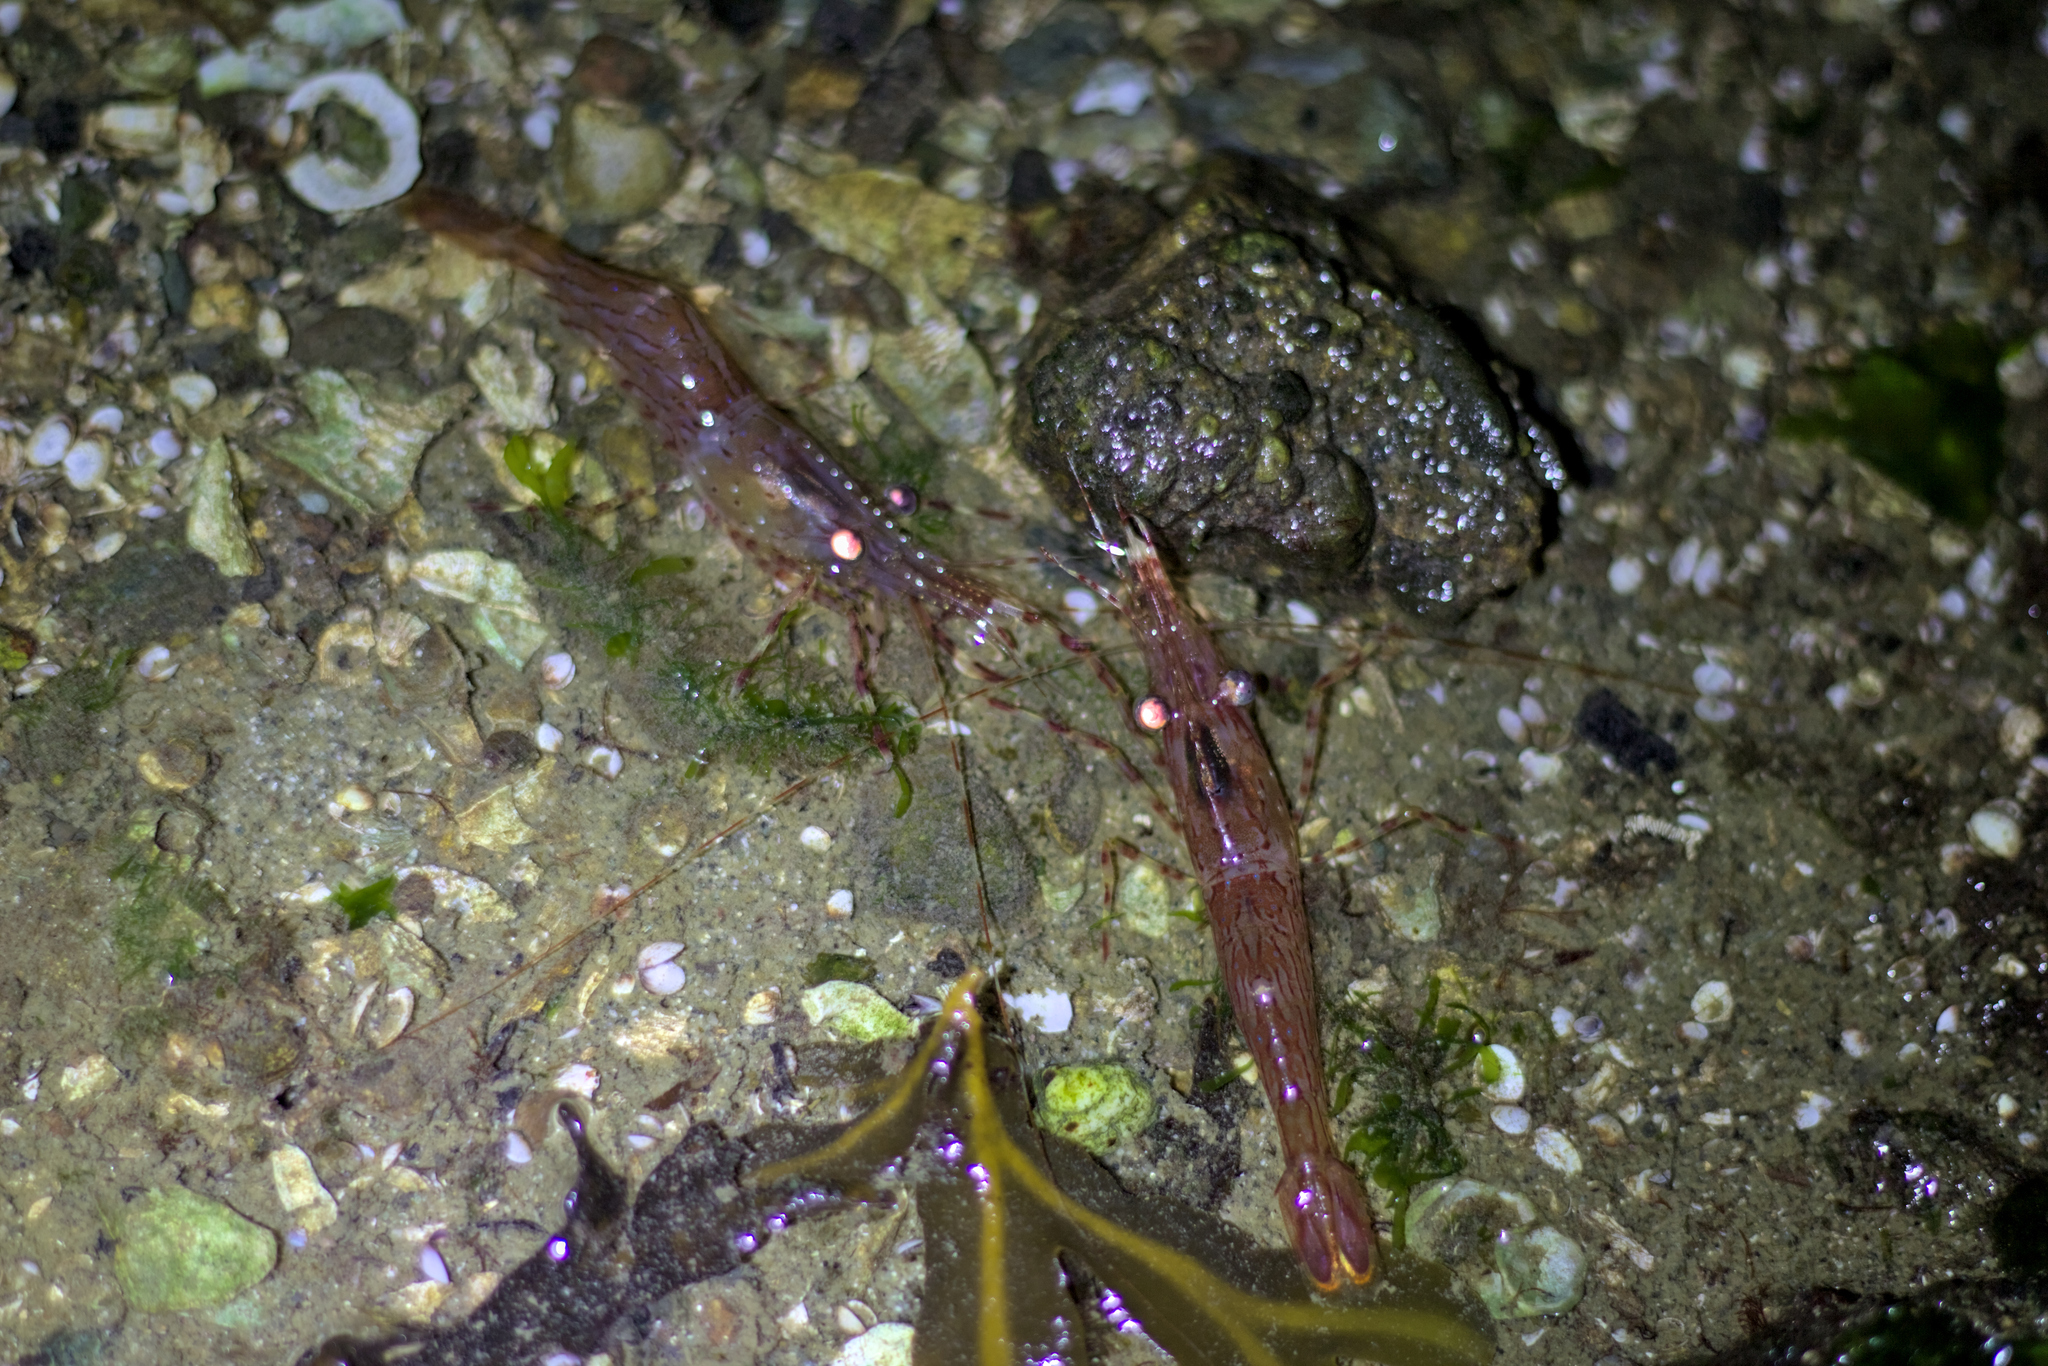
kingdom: Animalia
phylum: Arthropoda
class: Malacostraca
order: Decapoda
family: Pandalidae
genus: Pandalus
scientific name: Pandalus danae
